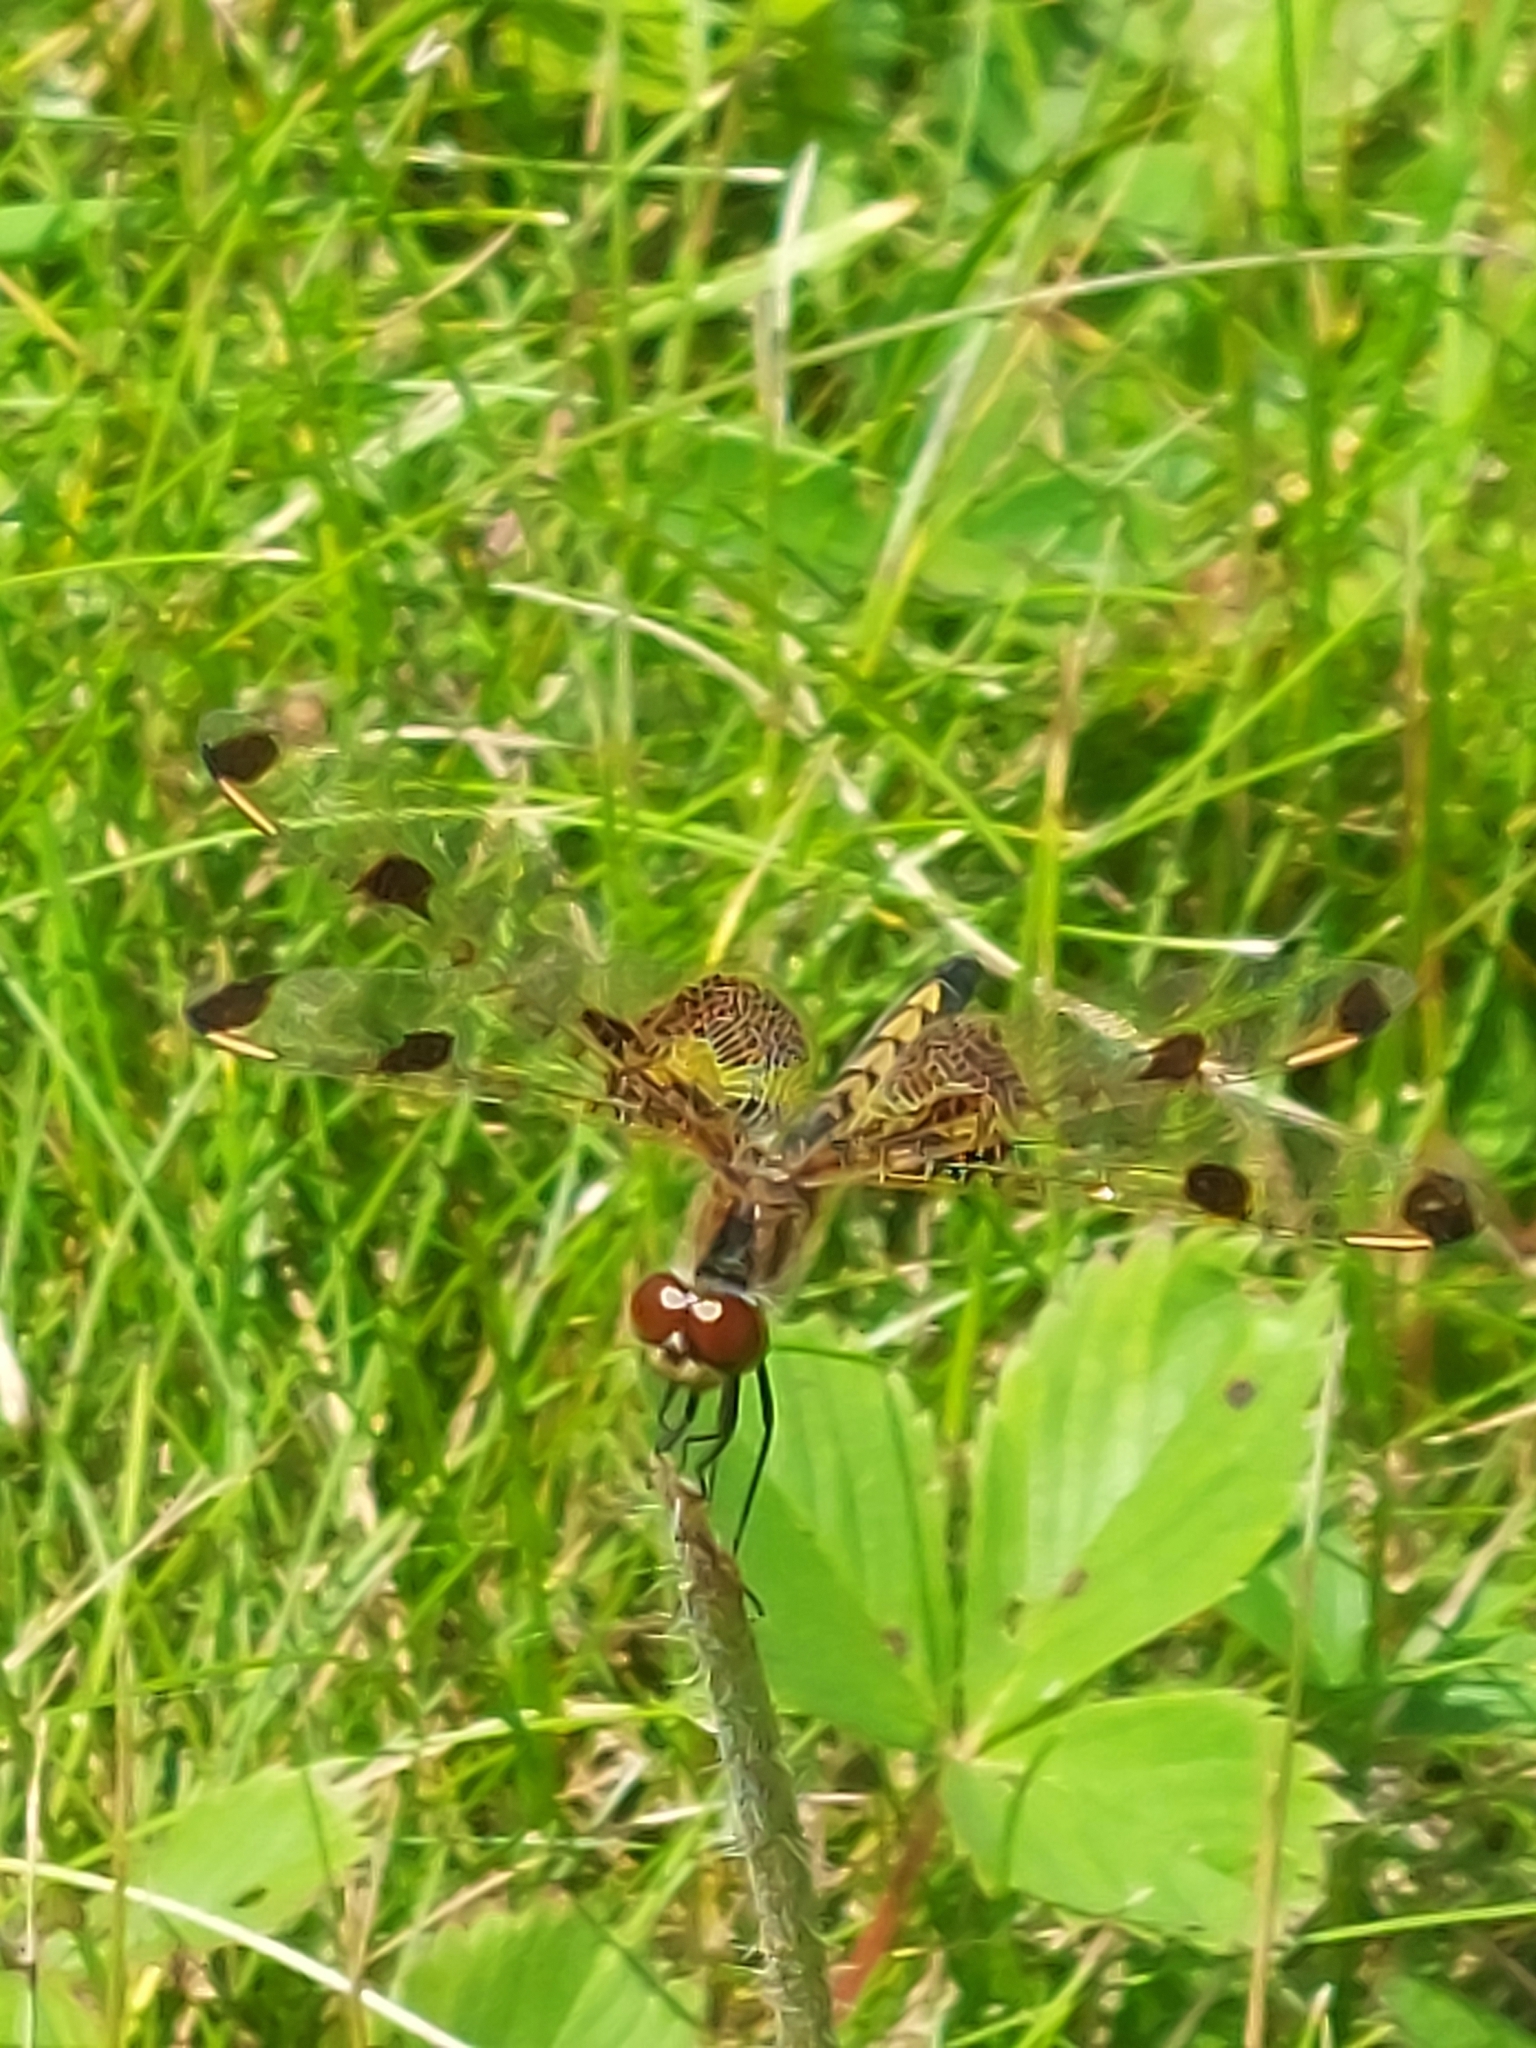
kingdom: Animalia
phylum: Arthropoda
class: Insecta
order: Odonata
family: Libellulidae
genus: Celithemis
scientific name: Celithemis elisa
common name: Calico pennant
